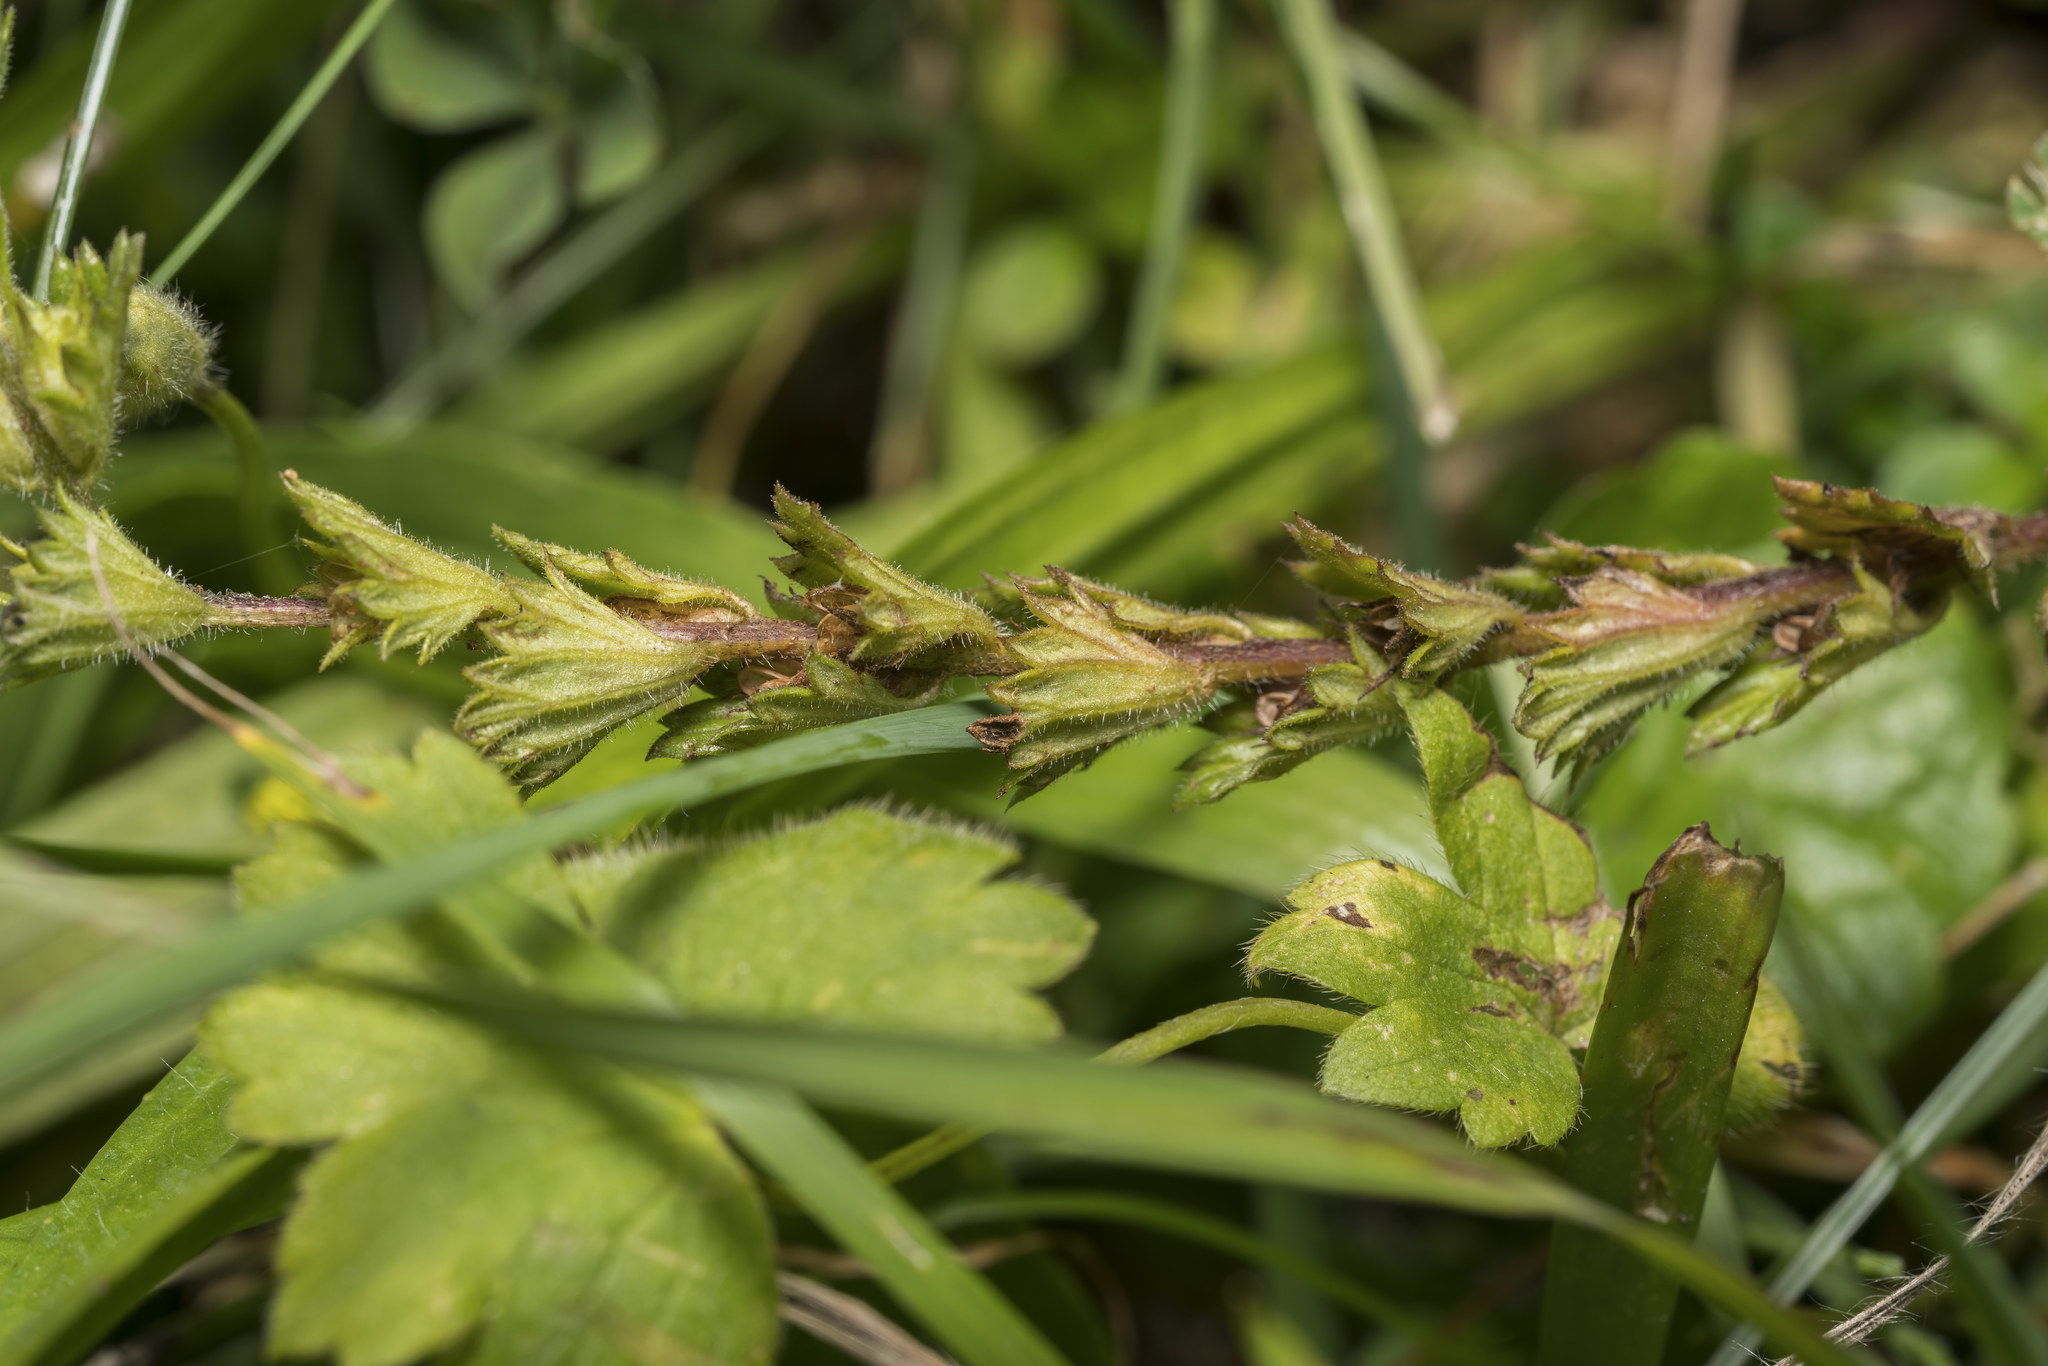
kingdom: Plantae
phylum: Tracheophyta
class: Magnoliopsida
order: Lamiales
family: Orobanchaceae
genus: Euphrasia
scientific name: Euphrasia officinalis
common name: Eyebright
